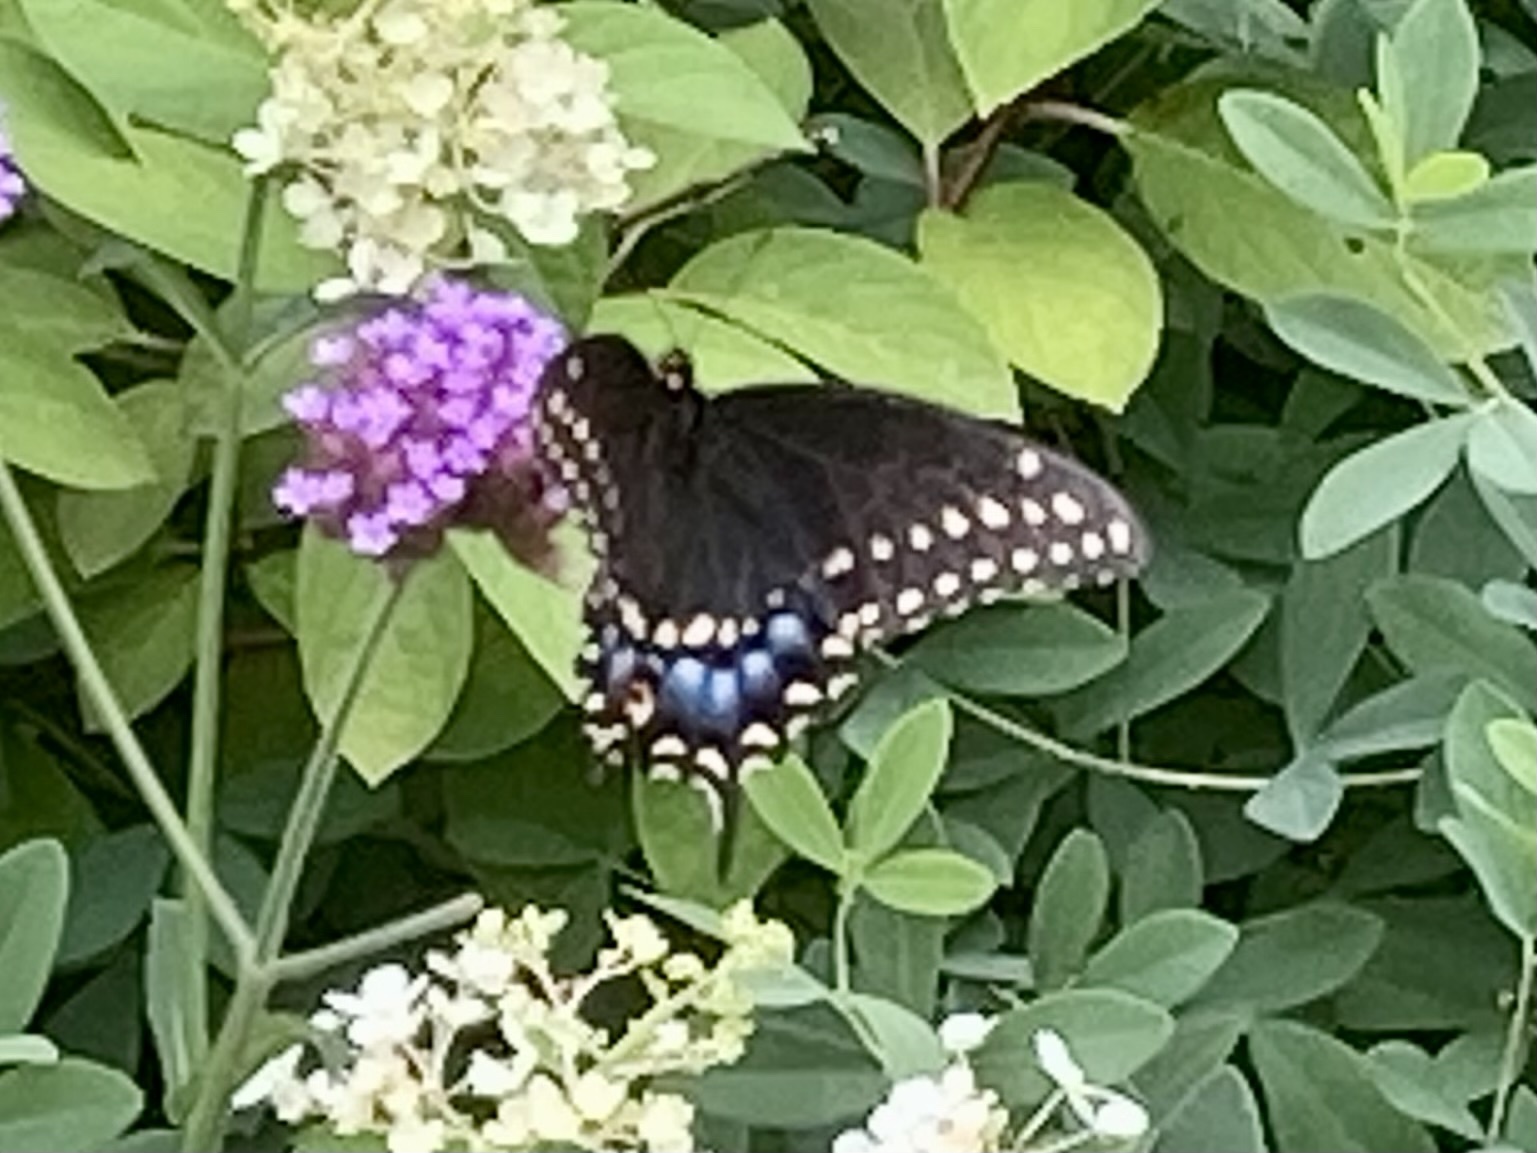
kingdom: Animalia
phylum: Arthropoda
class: Insecta
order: Lepidoptera
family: Papilionidae
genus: Papilio
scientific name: Papilio polyxenes
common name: Black swallowtail
